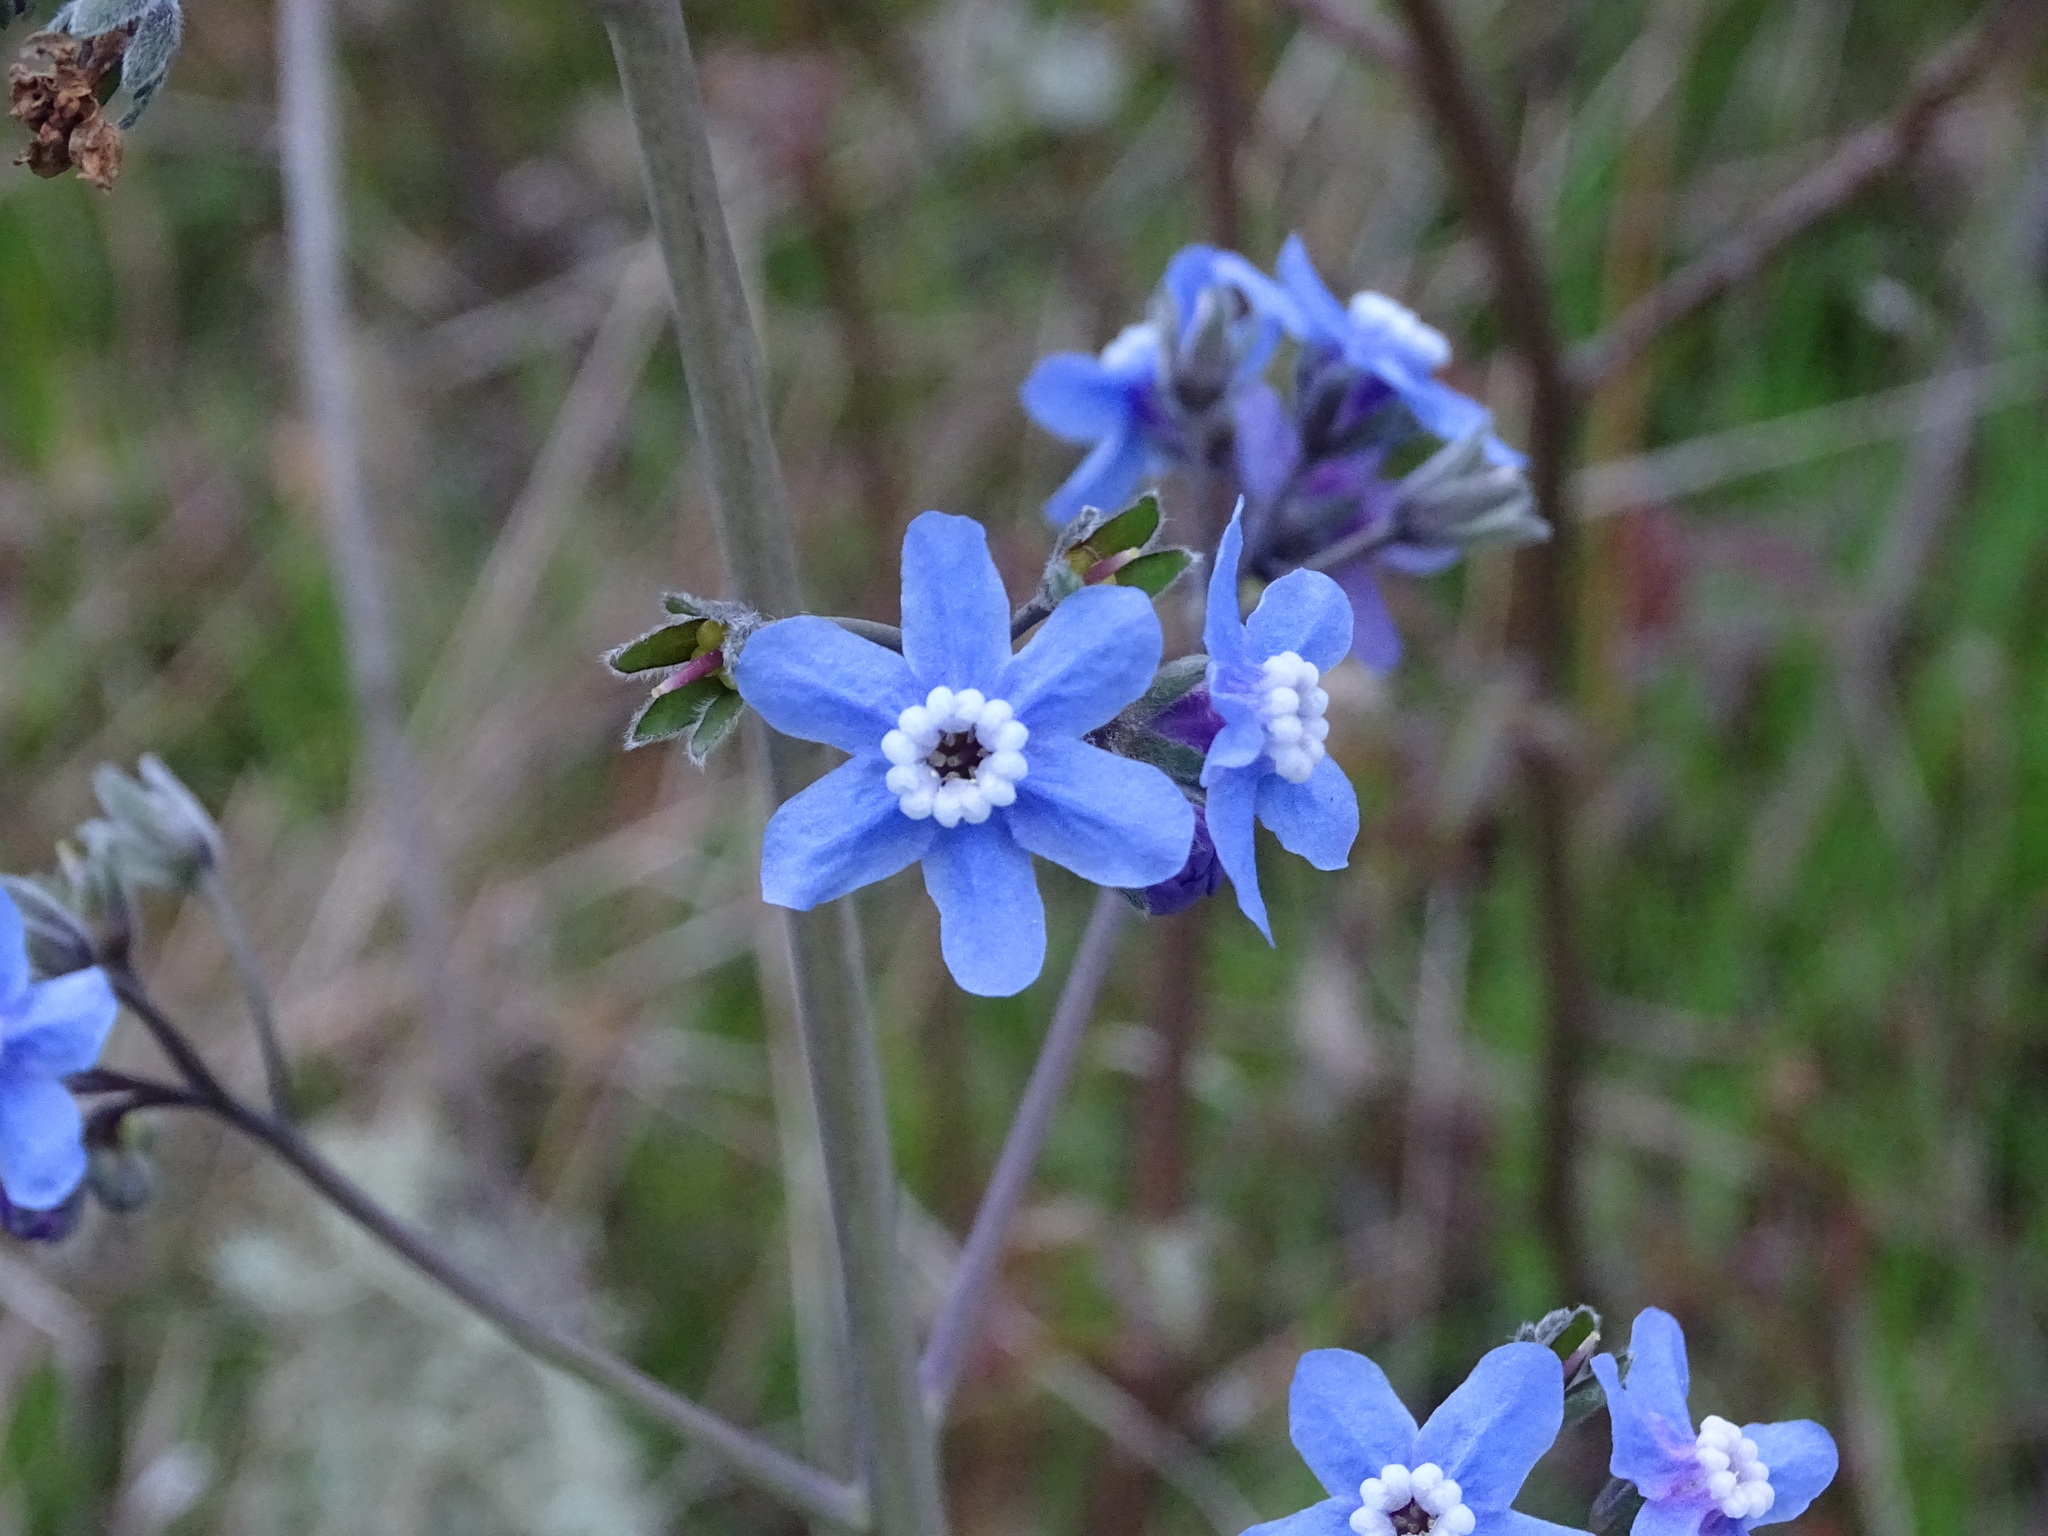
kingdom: Plantae
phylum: Tracheophyta
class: Magnoliopsida
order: Boraginales
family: Boraginaceae
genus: Adelinia
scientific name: Adelinia grande
